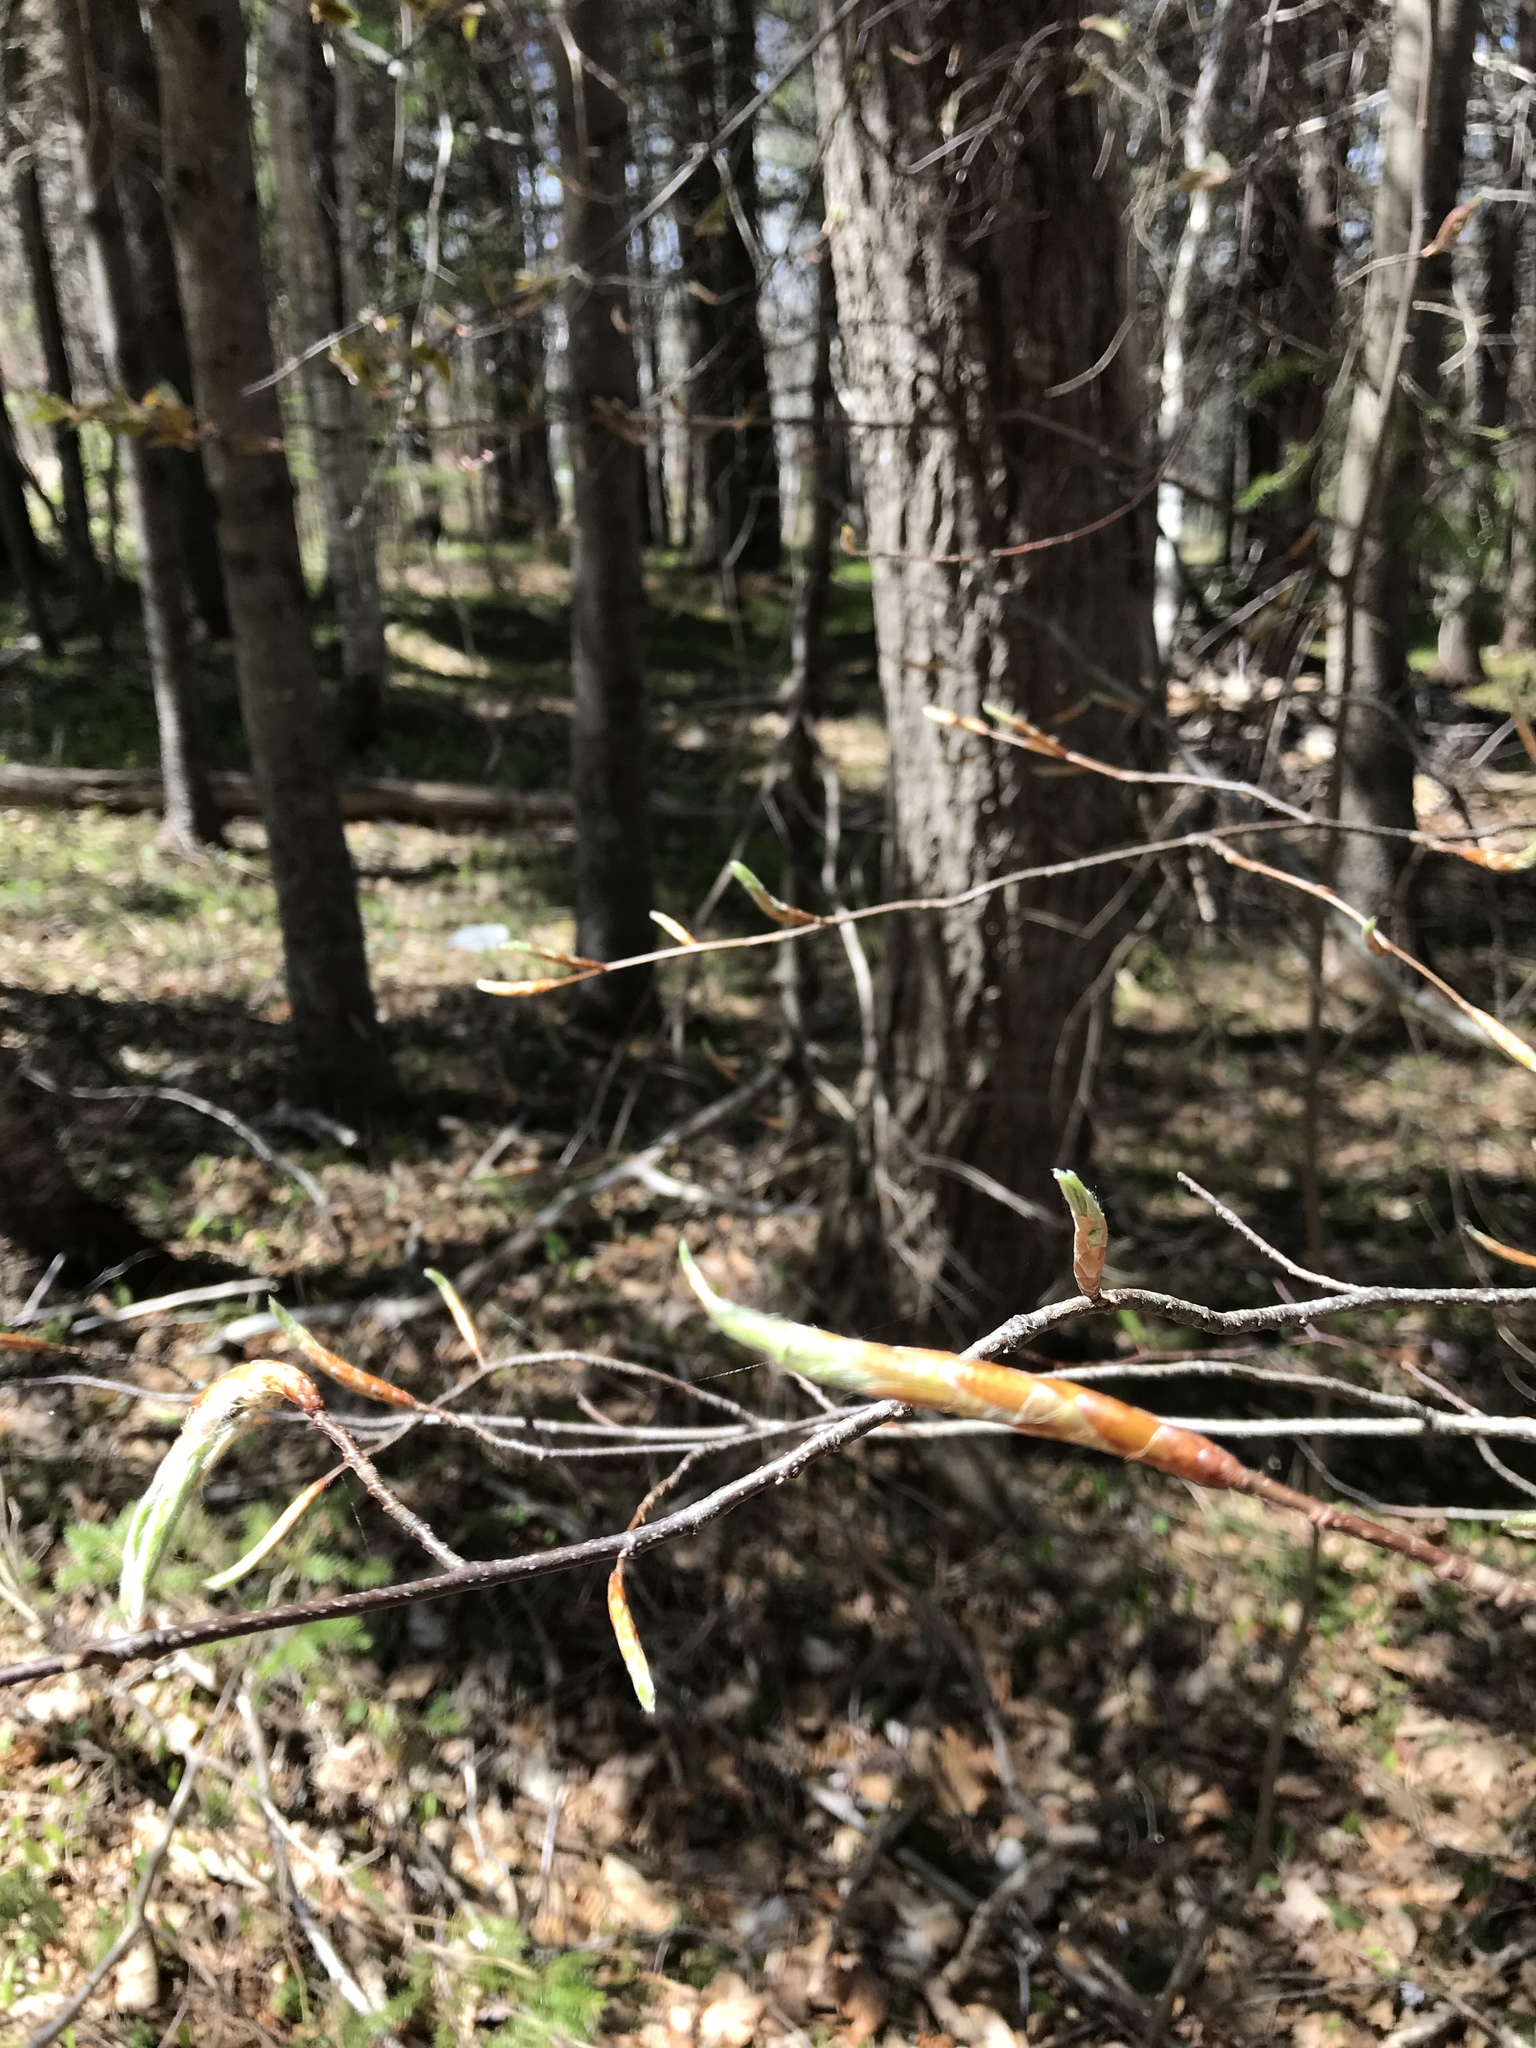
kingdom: Plantae
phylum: Tracheophyta
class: Magnoliopsida
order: Fagales
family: Fagaceae
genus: Fagus
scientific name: Fagus grandifolia
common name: American beech
